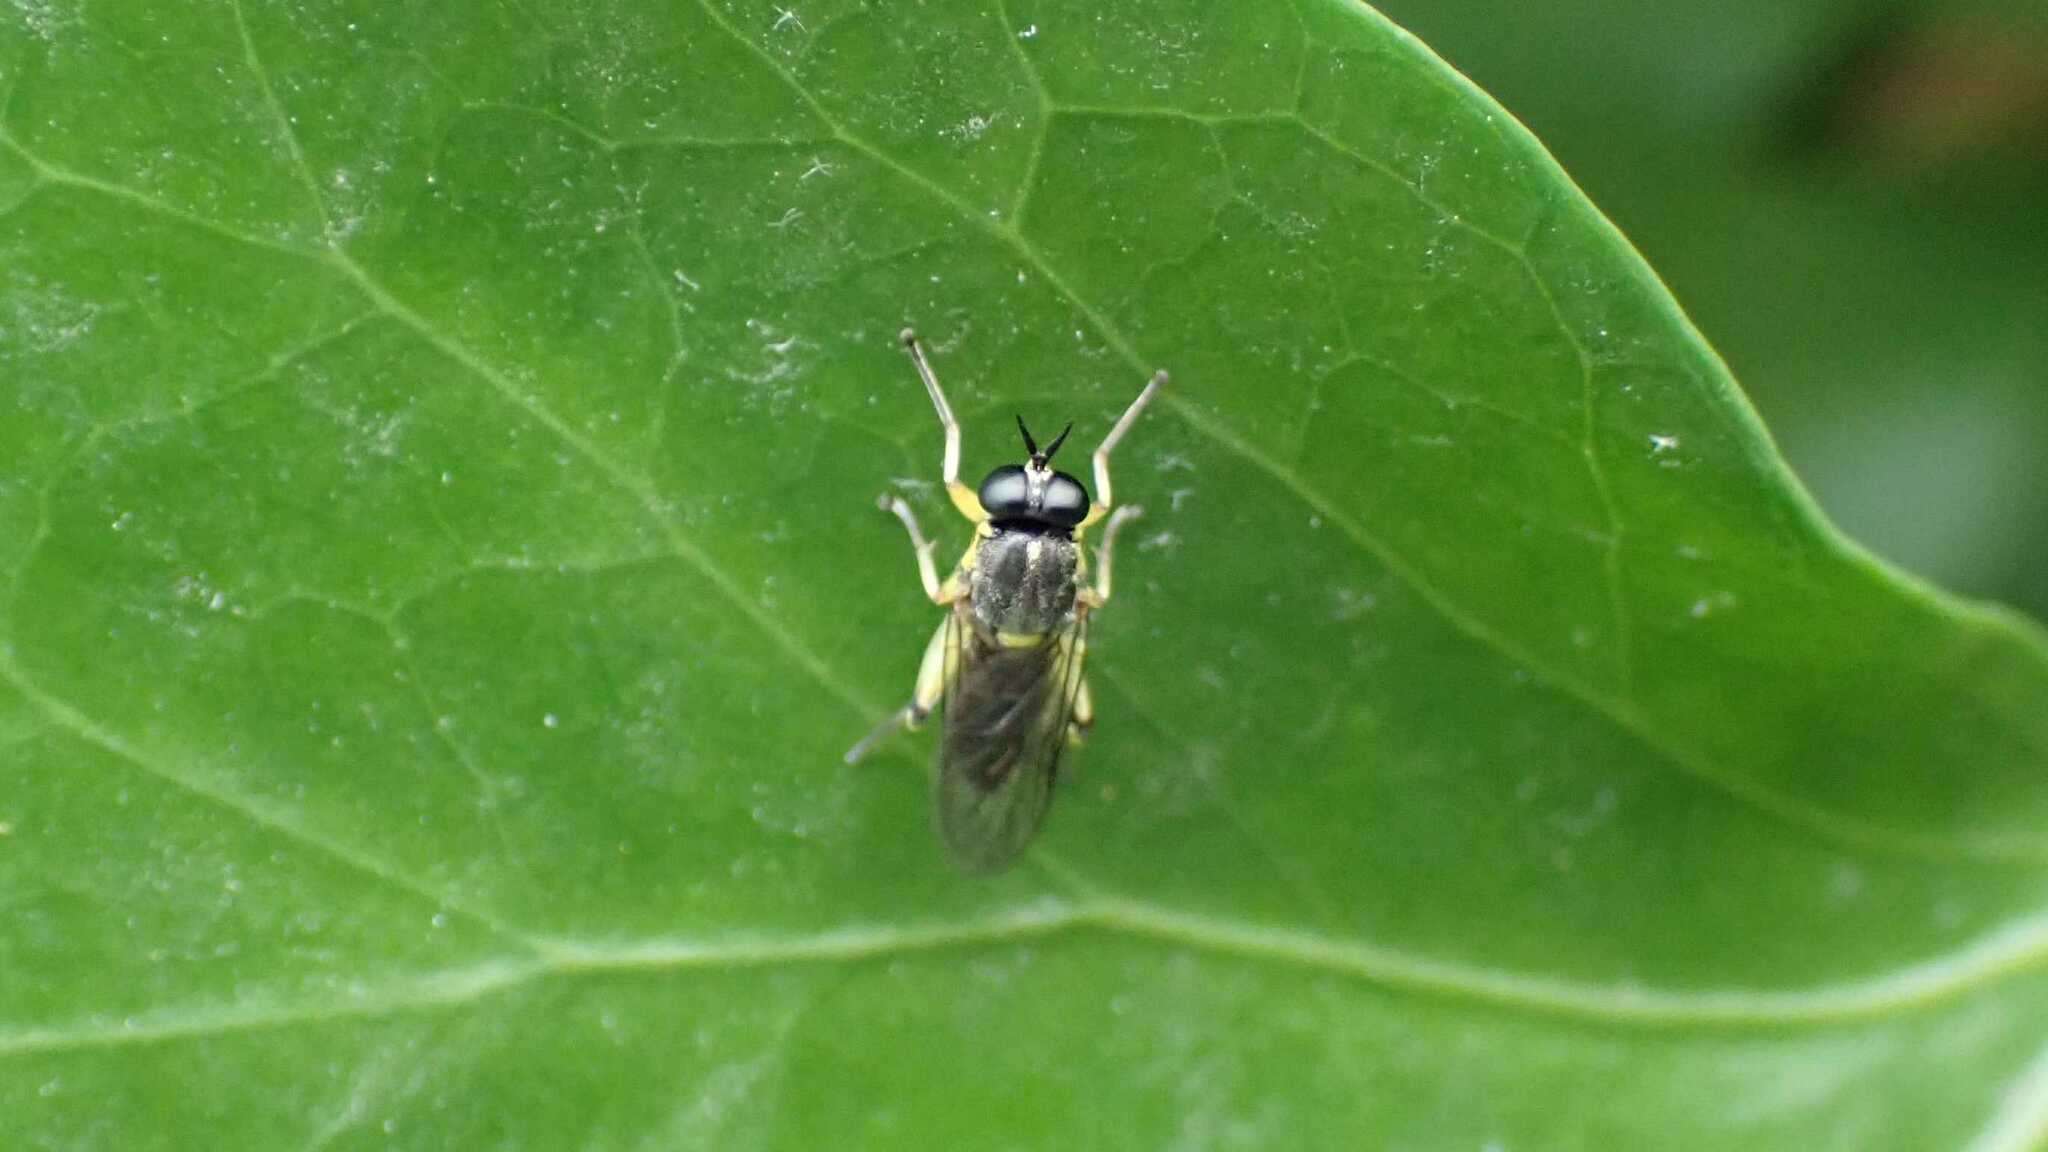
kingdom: Animalia
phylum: Arthropoda
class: Insecta
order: Diptera
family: Xylomyidae
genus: Solva
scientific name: Solva marginata
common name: Drab wood-soldierfly
